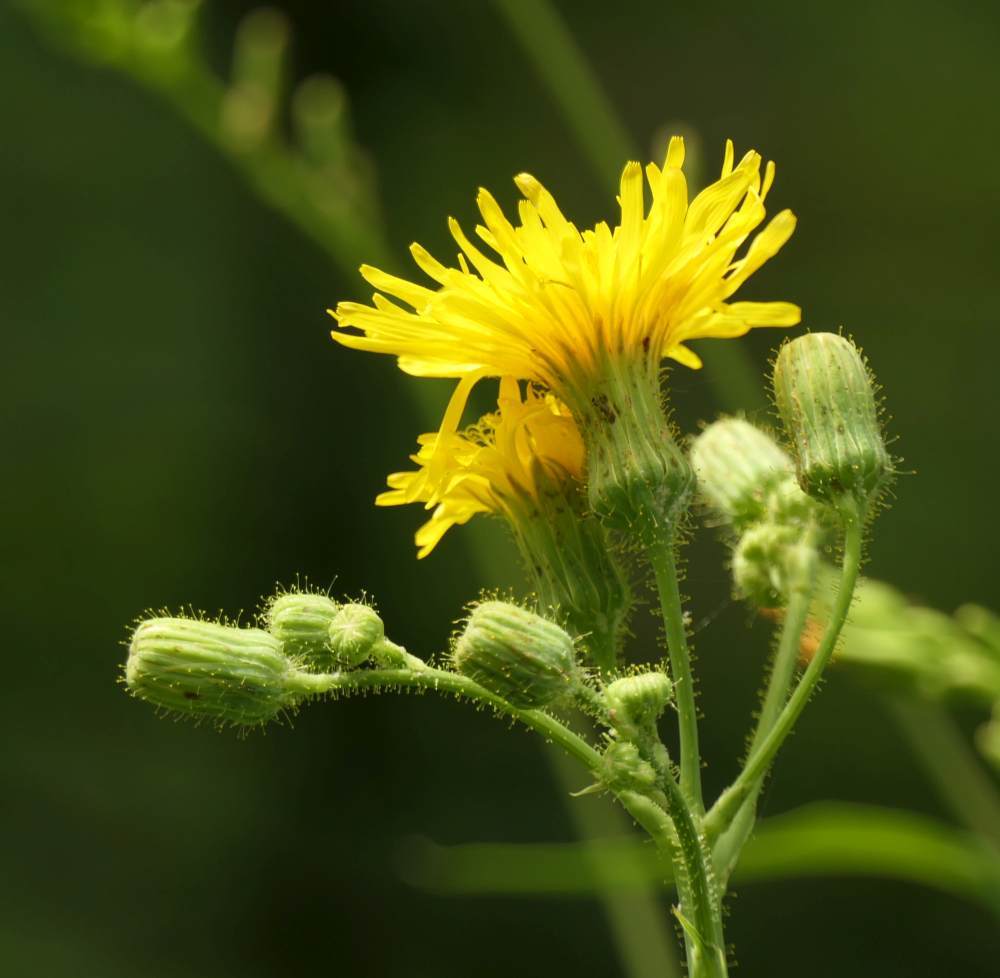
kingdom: Plantae
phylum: Tracheophyta
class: Magnoliopsida
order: Asterales
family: Asteraceae
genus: Sonchus
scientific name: Sonchus arvensis
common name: Perennial sow-thistle
